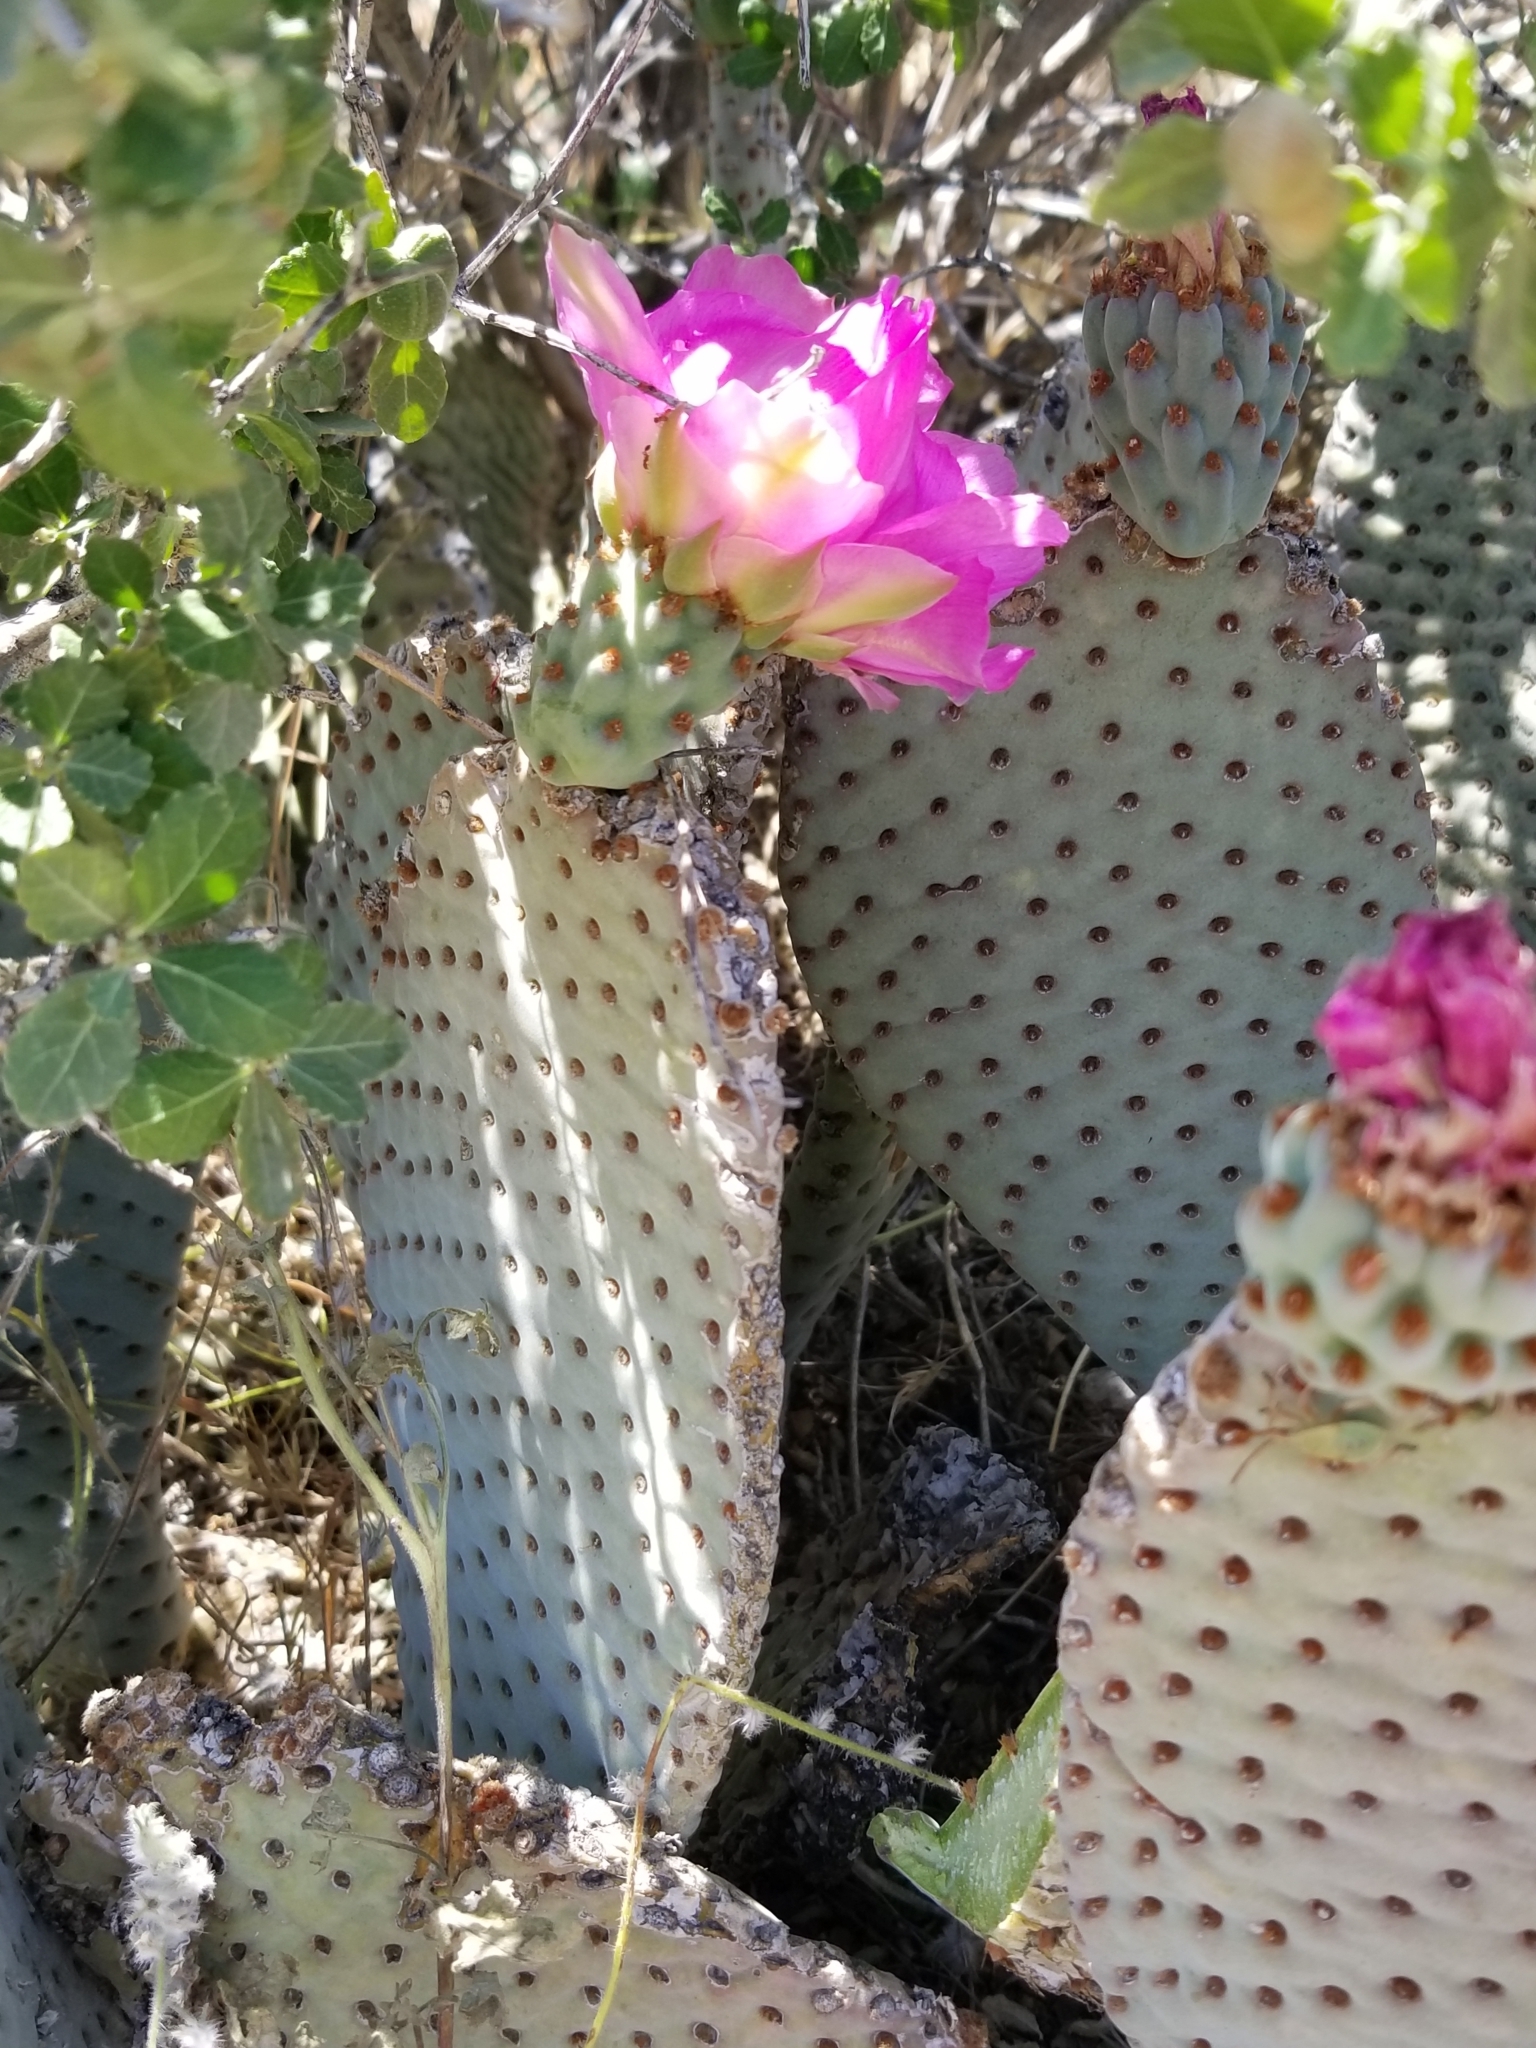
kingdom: Plantae
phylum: Tracheophyta
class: Magnoliopsida
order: Caryophyllales
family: Cactaceae
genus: Opuntia
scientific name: Opuntia basilaris
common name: Beavertail prickly-pear
